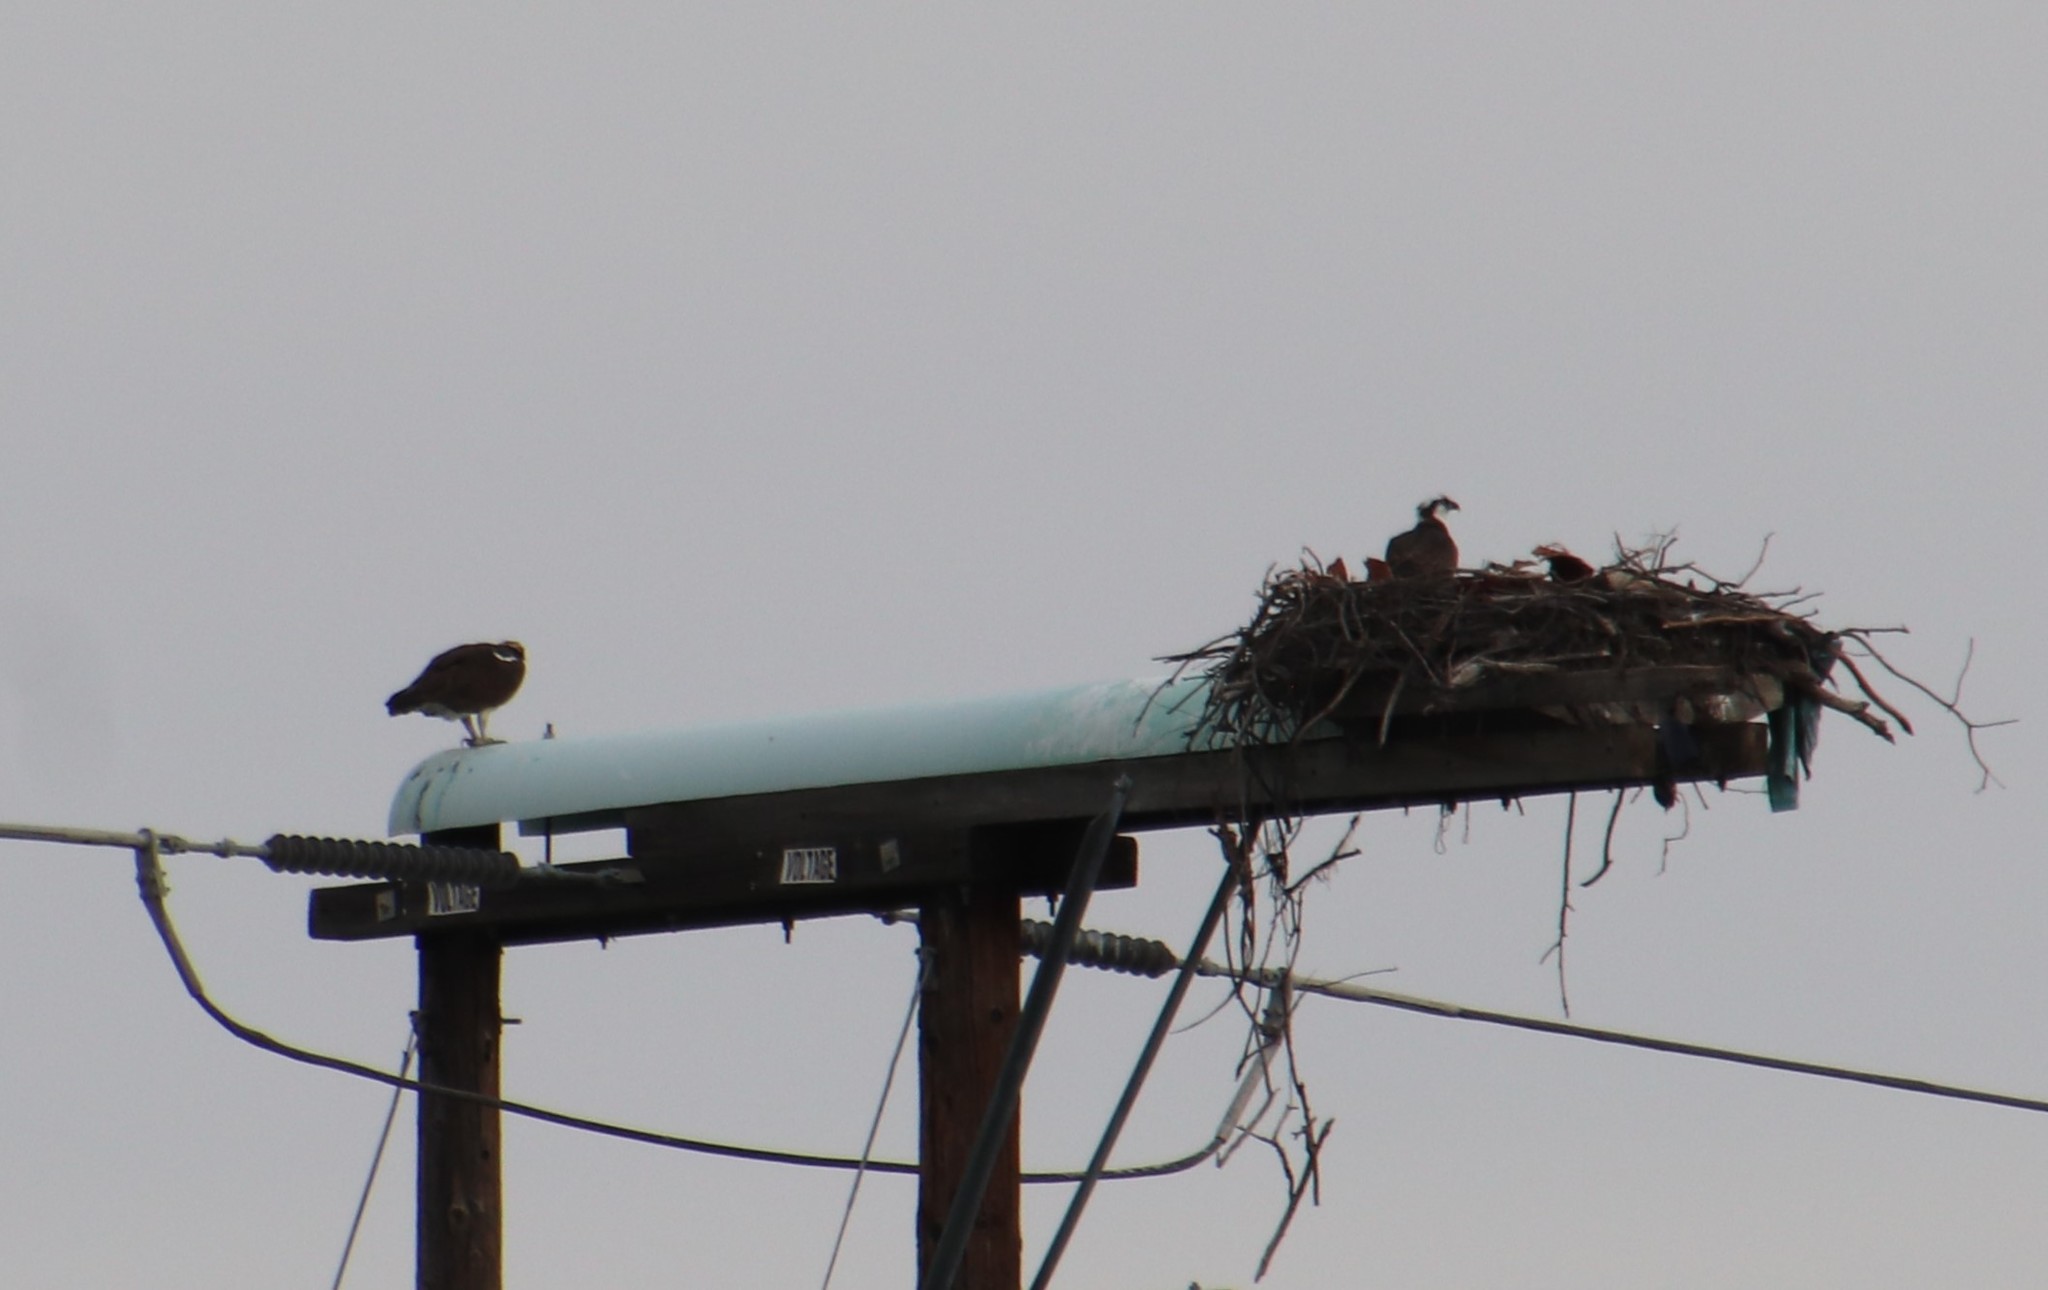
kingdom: Animalia
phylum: Chordata
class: Aves
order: Accipitriformes
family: Pandionidae
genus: Pandion
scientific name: Pandion haliaetus
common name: Osprey
